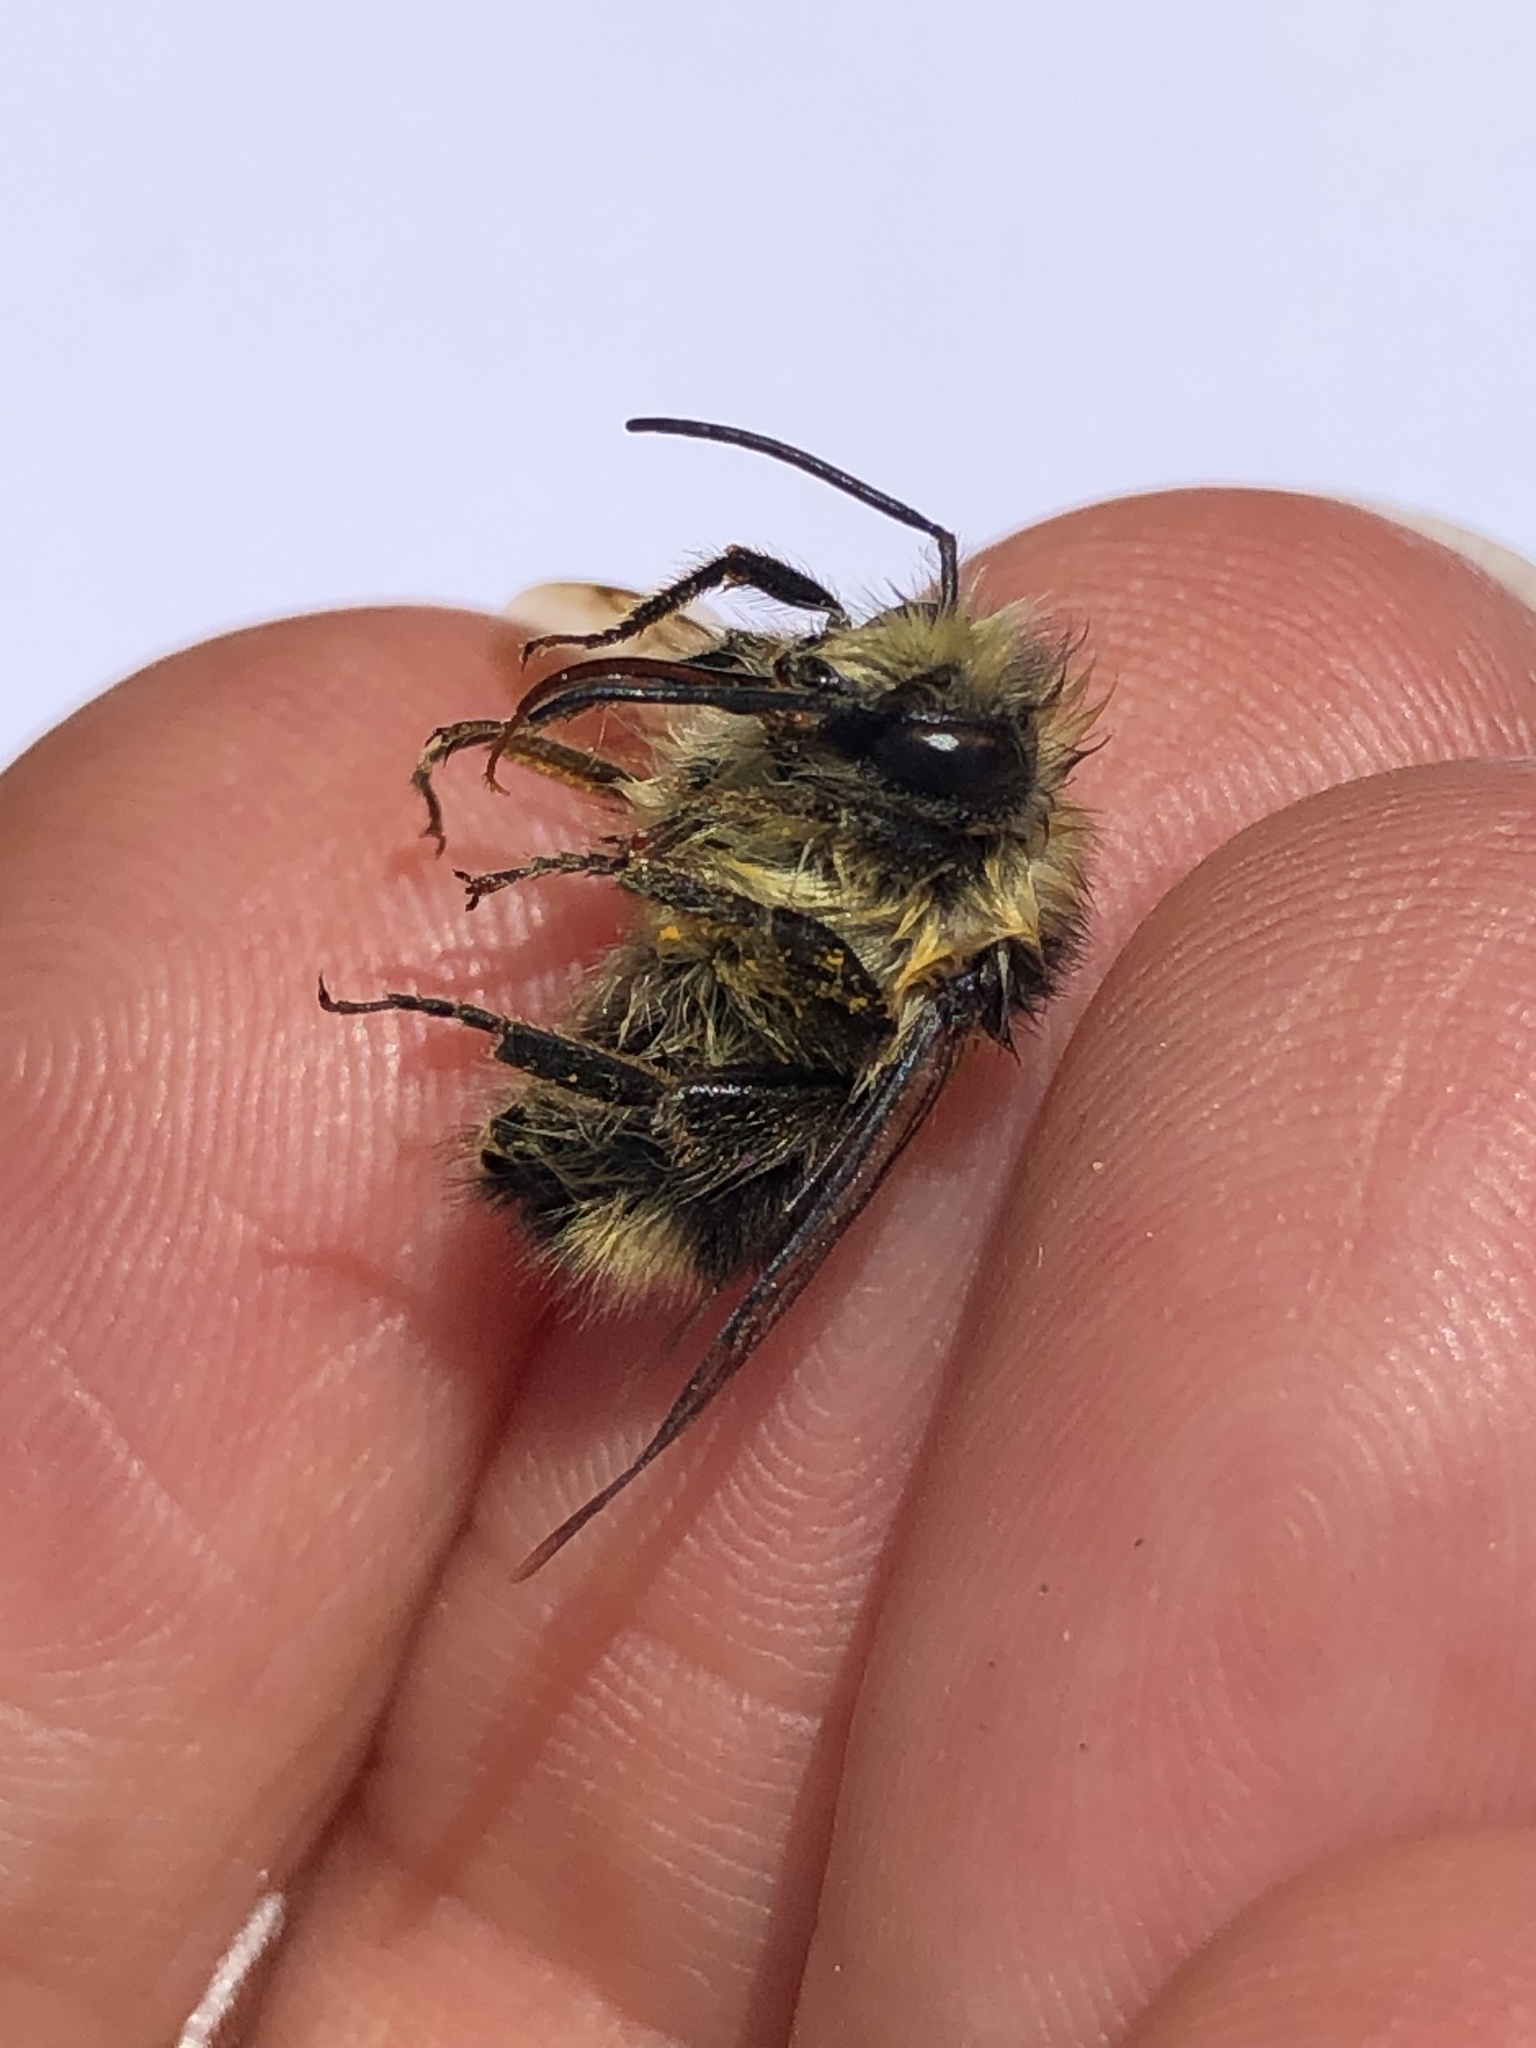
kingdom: Animalia
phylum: Arthropoda
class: Insecta
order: Hymenoptera
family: Apidae
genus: Bombus
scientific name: Bombus melanopygus
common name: Black tail bumble bee
